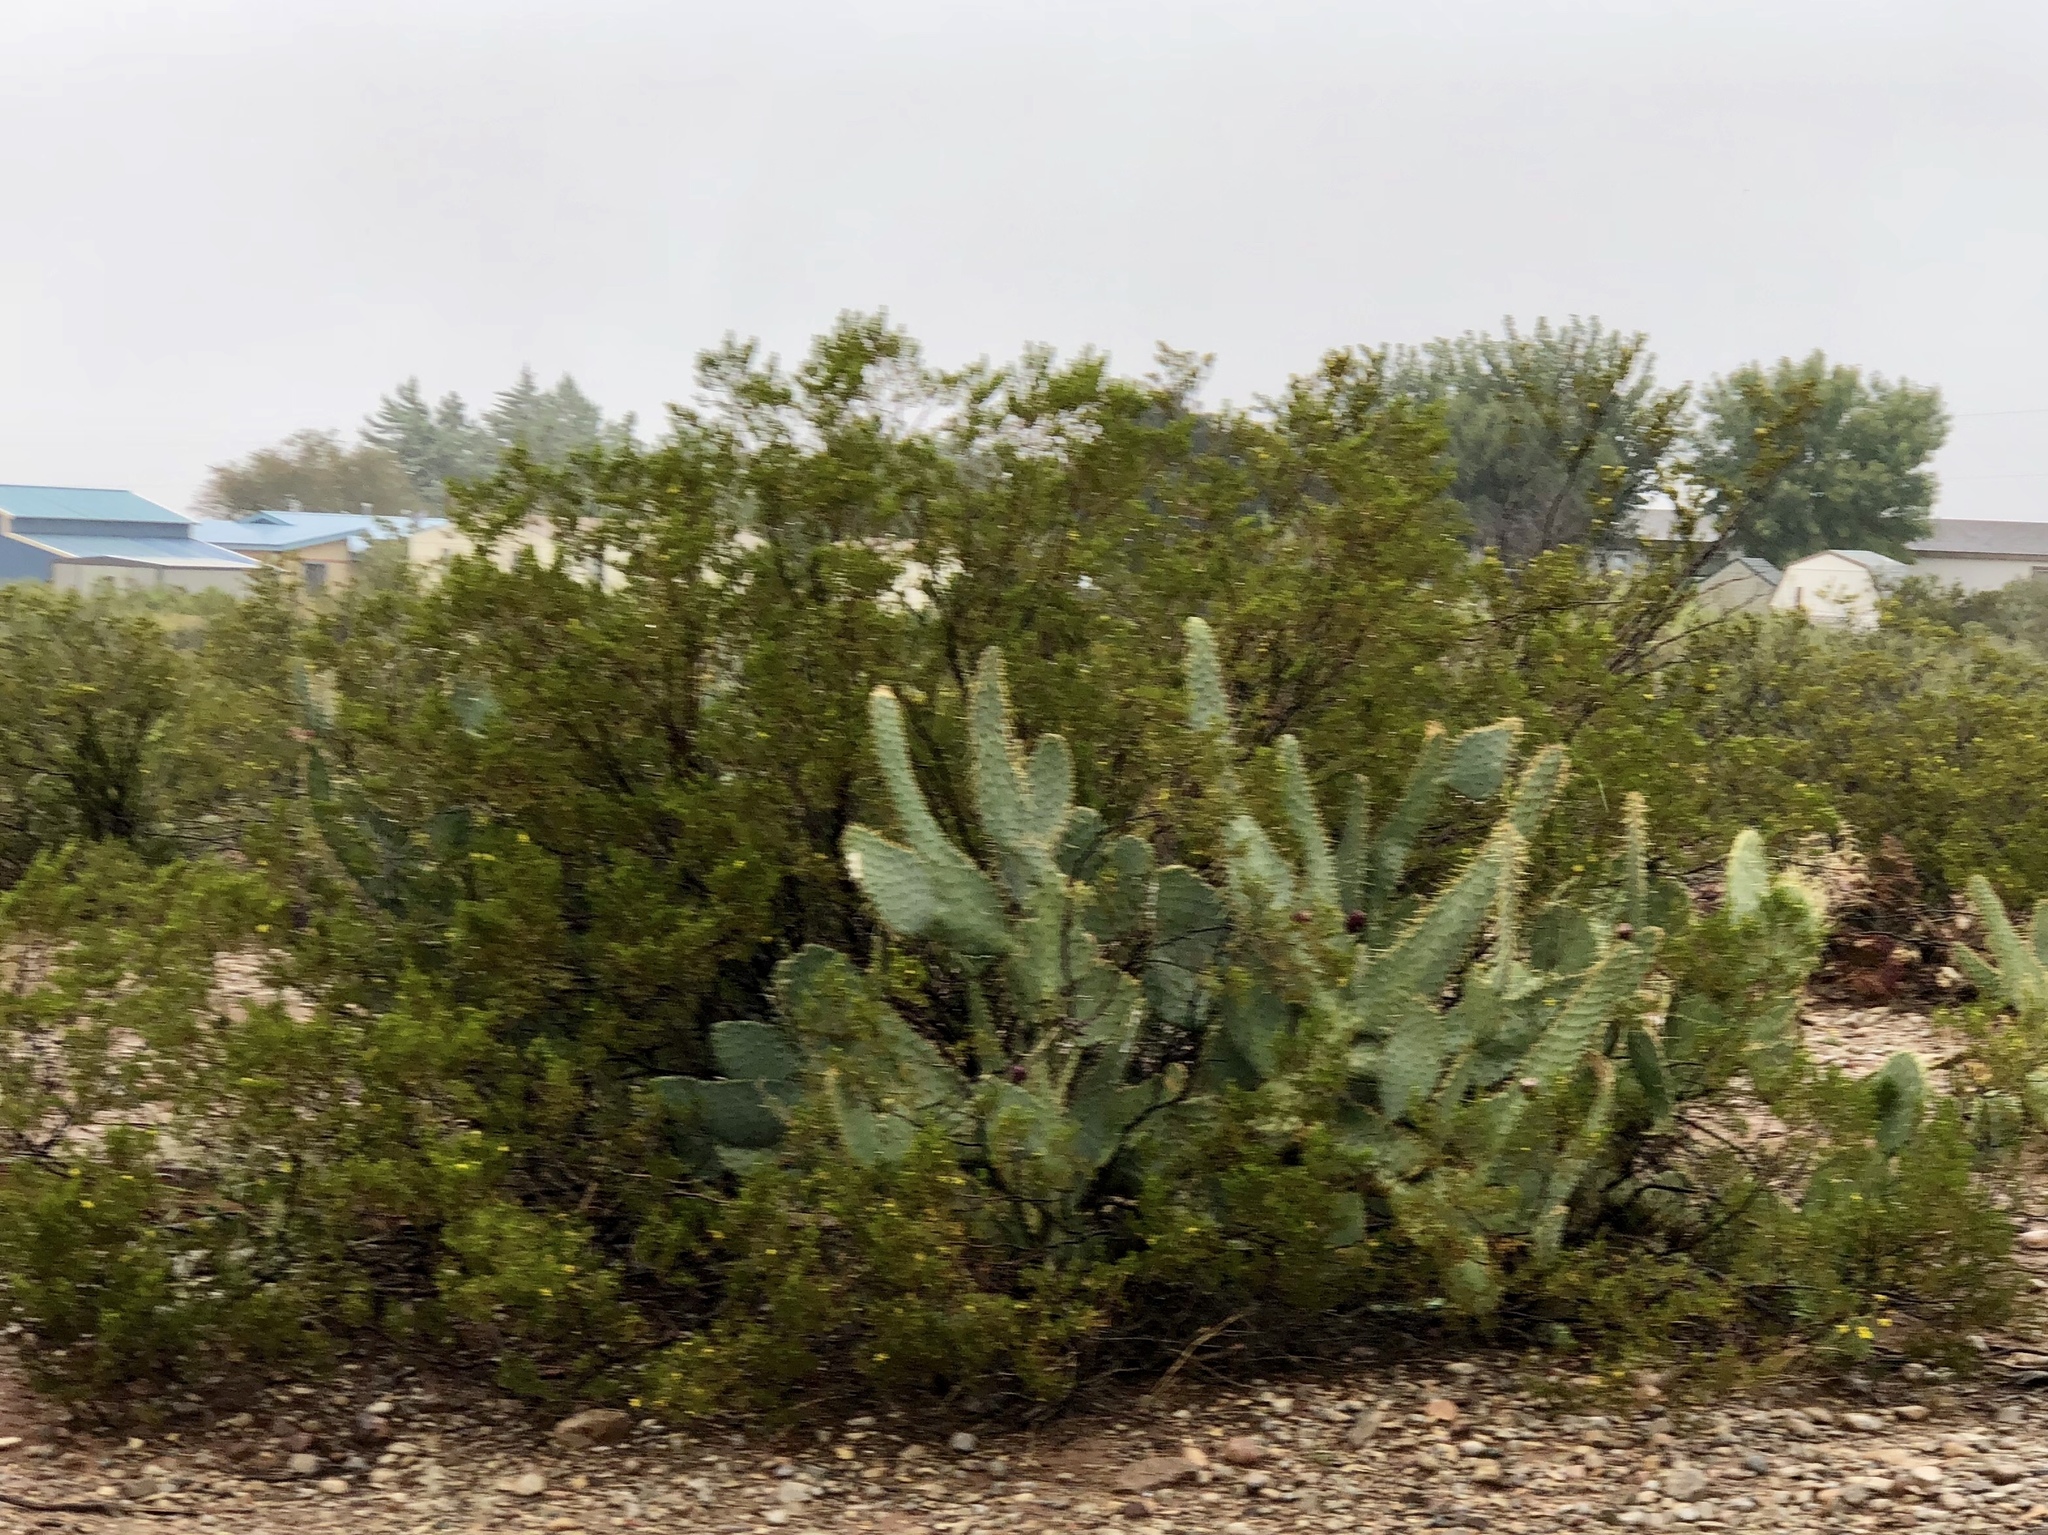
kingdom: Plantae
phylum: Tracheophyta
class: Magnoliopsida
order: Zygophyllales
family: Zygophyllaceae
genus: Larrea
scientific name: Larrea tridentata
